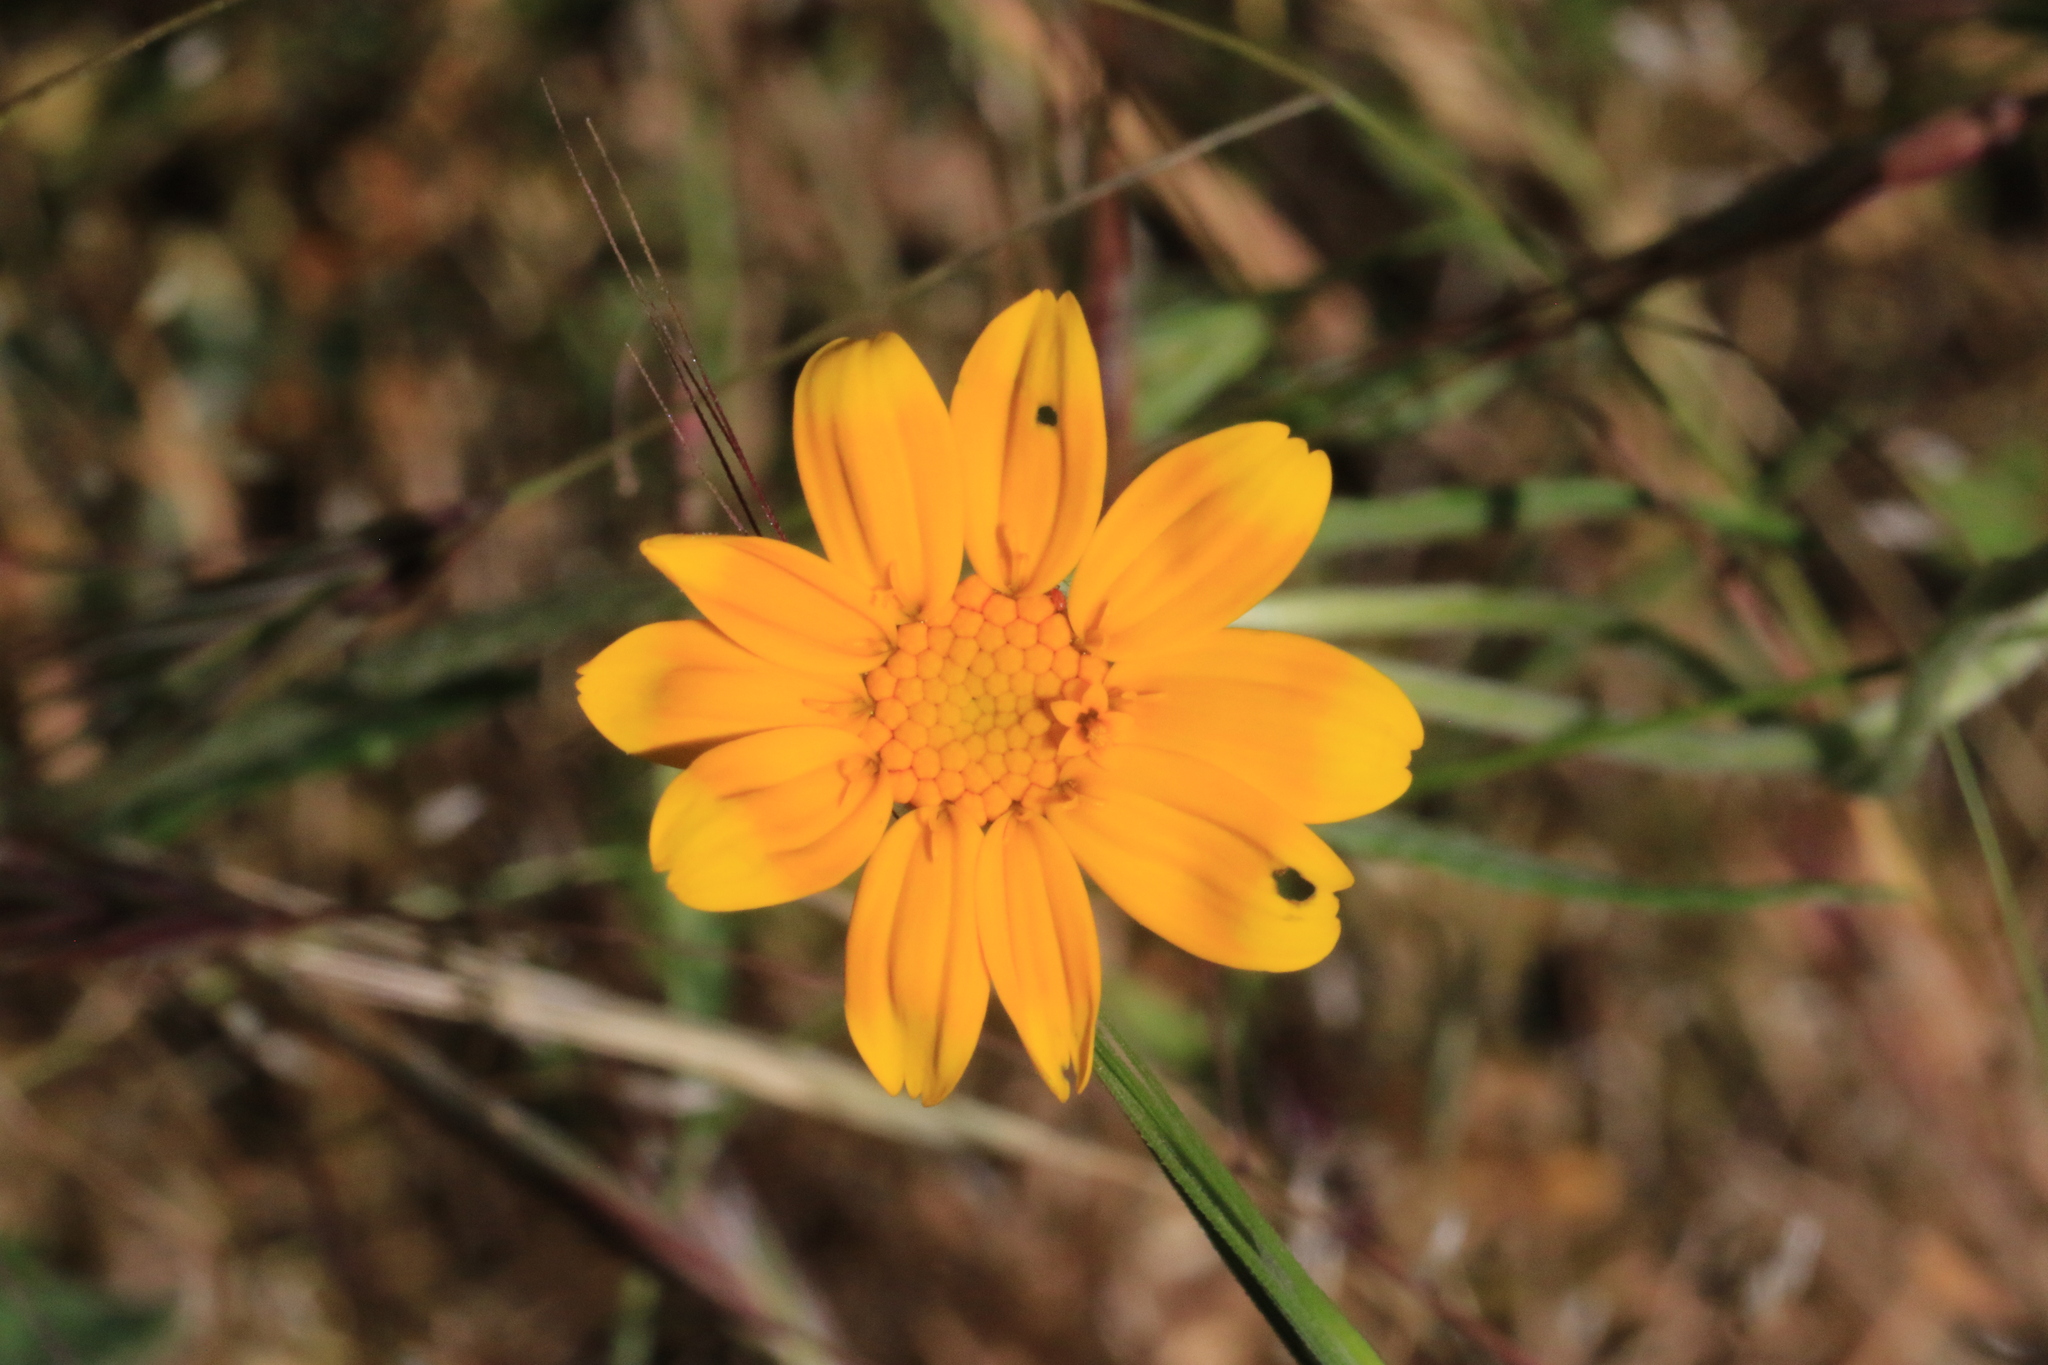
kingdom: Plantae
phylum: Tracheophyta
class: Magnoliopsida
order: Asterales
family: Asteraceae
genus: Eriophyllum
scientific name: Eriophyllum lanatum
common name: Common woolly-sunflower
